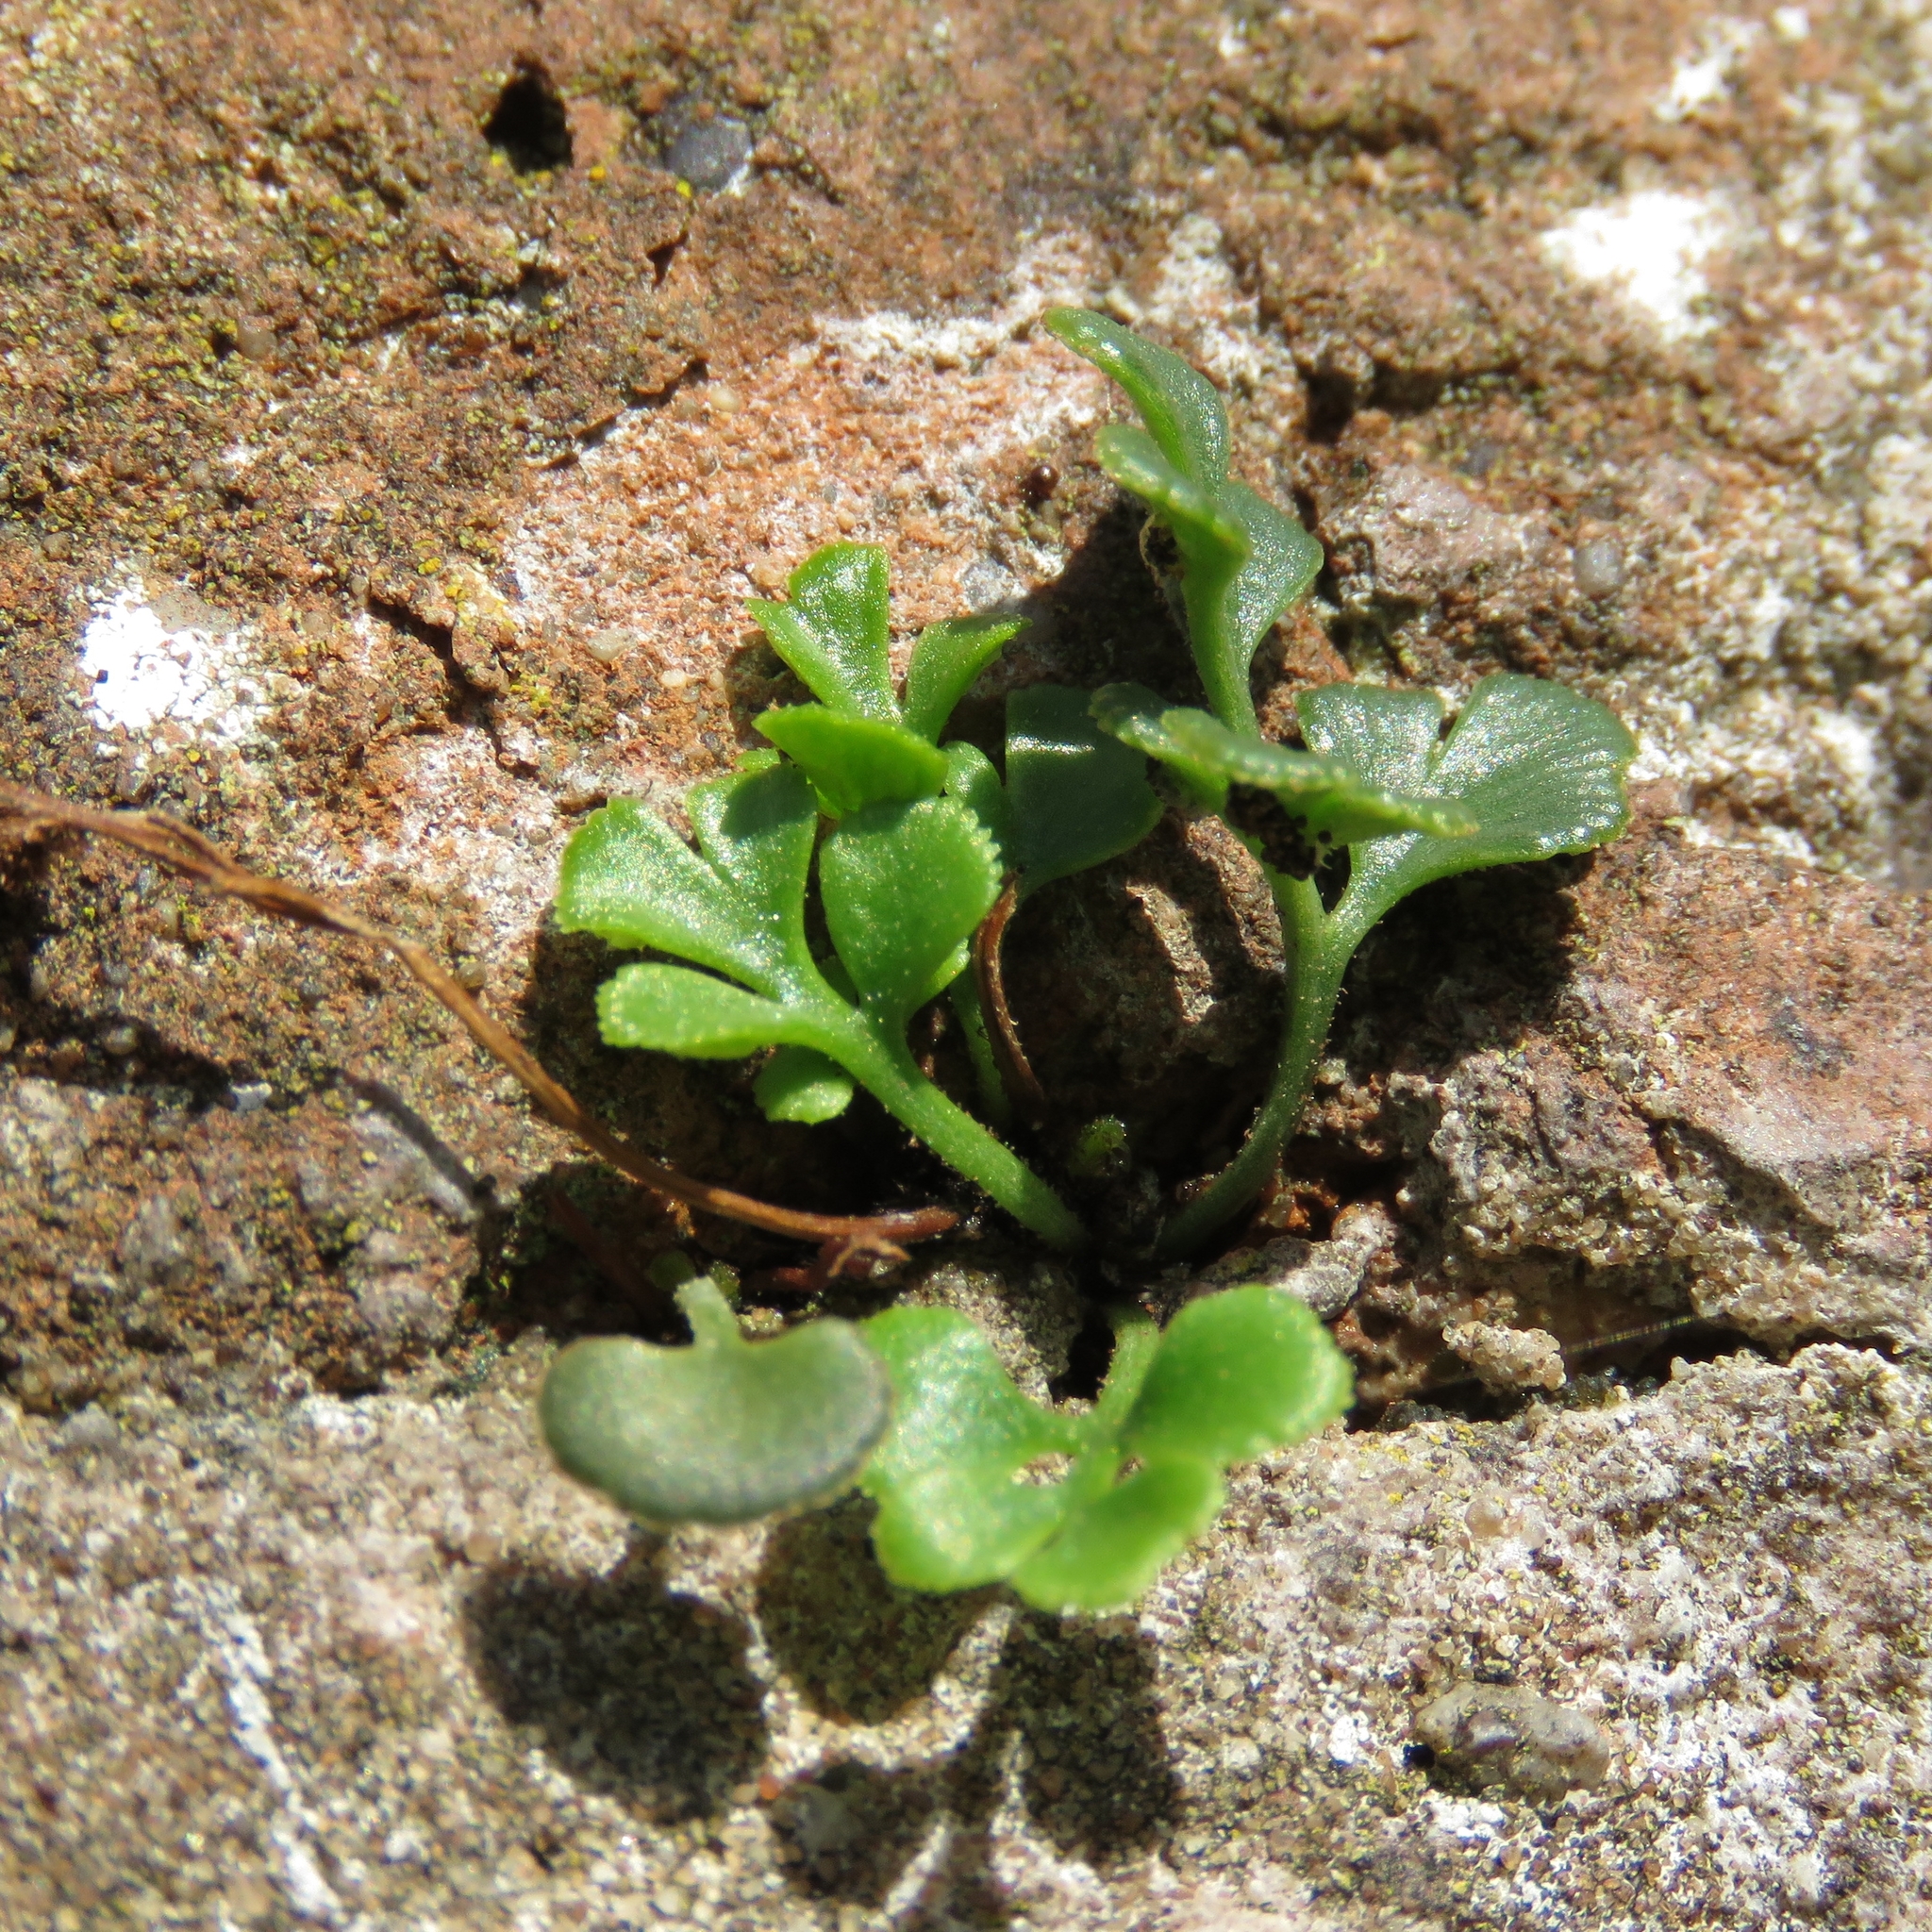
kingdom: Plantae
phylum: Tracheophyta
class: Polypodiopsida
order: Polypodiales
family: Aspleniaceae
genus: Asplenium
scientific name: Asplenium ruta-muraria
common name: Wall-rue
